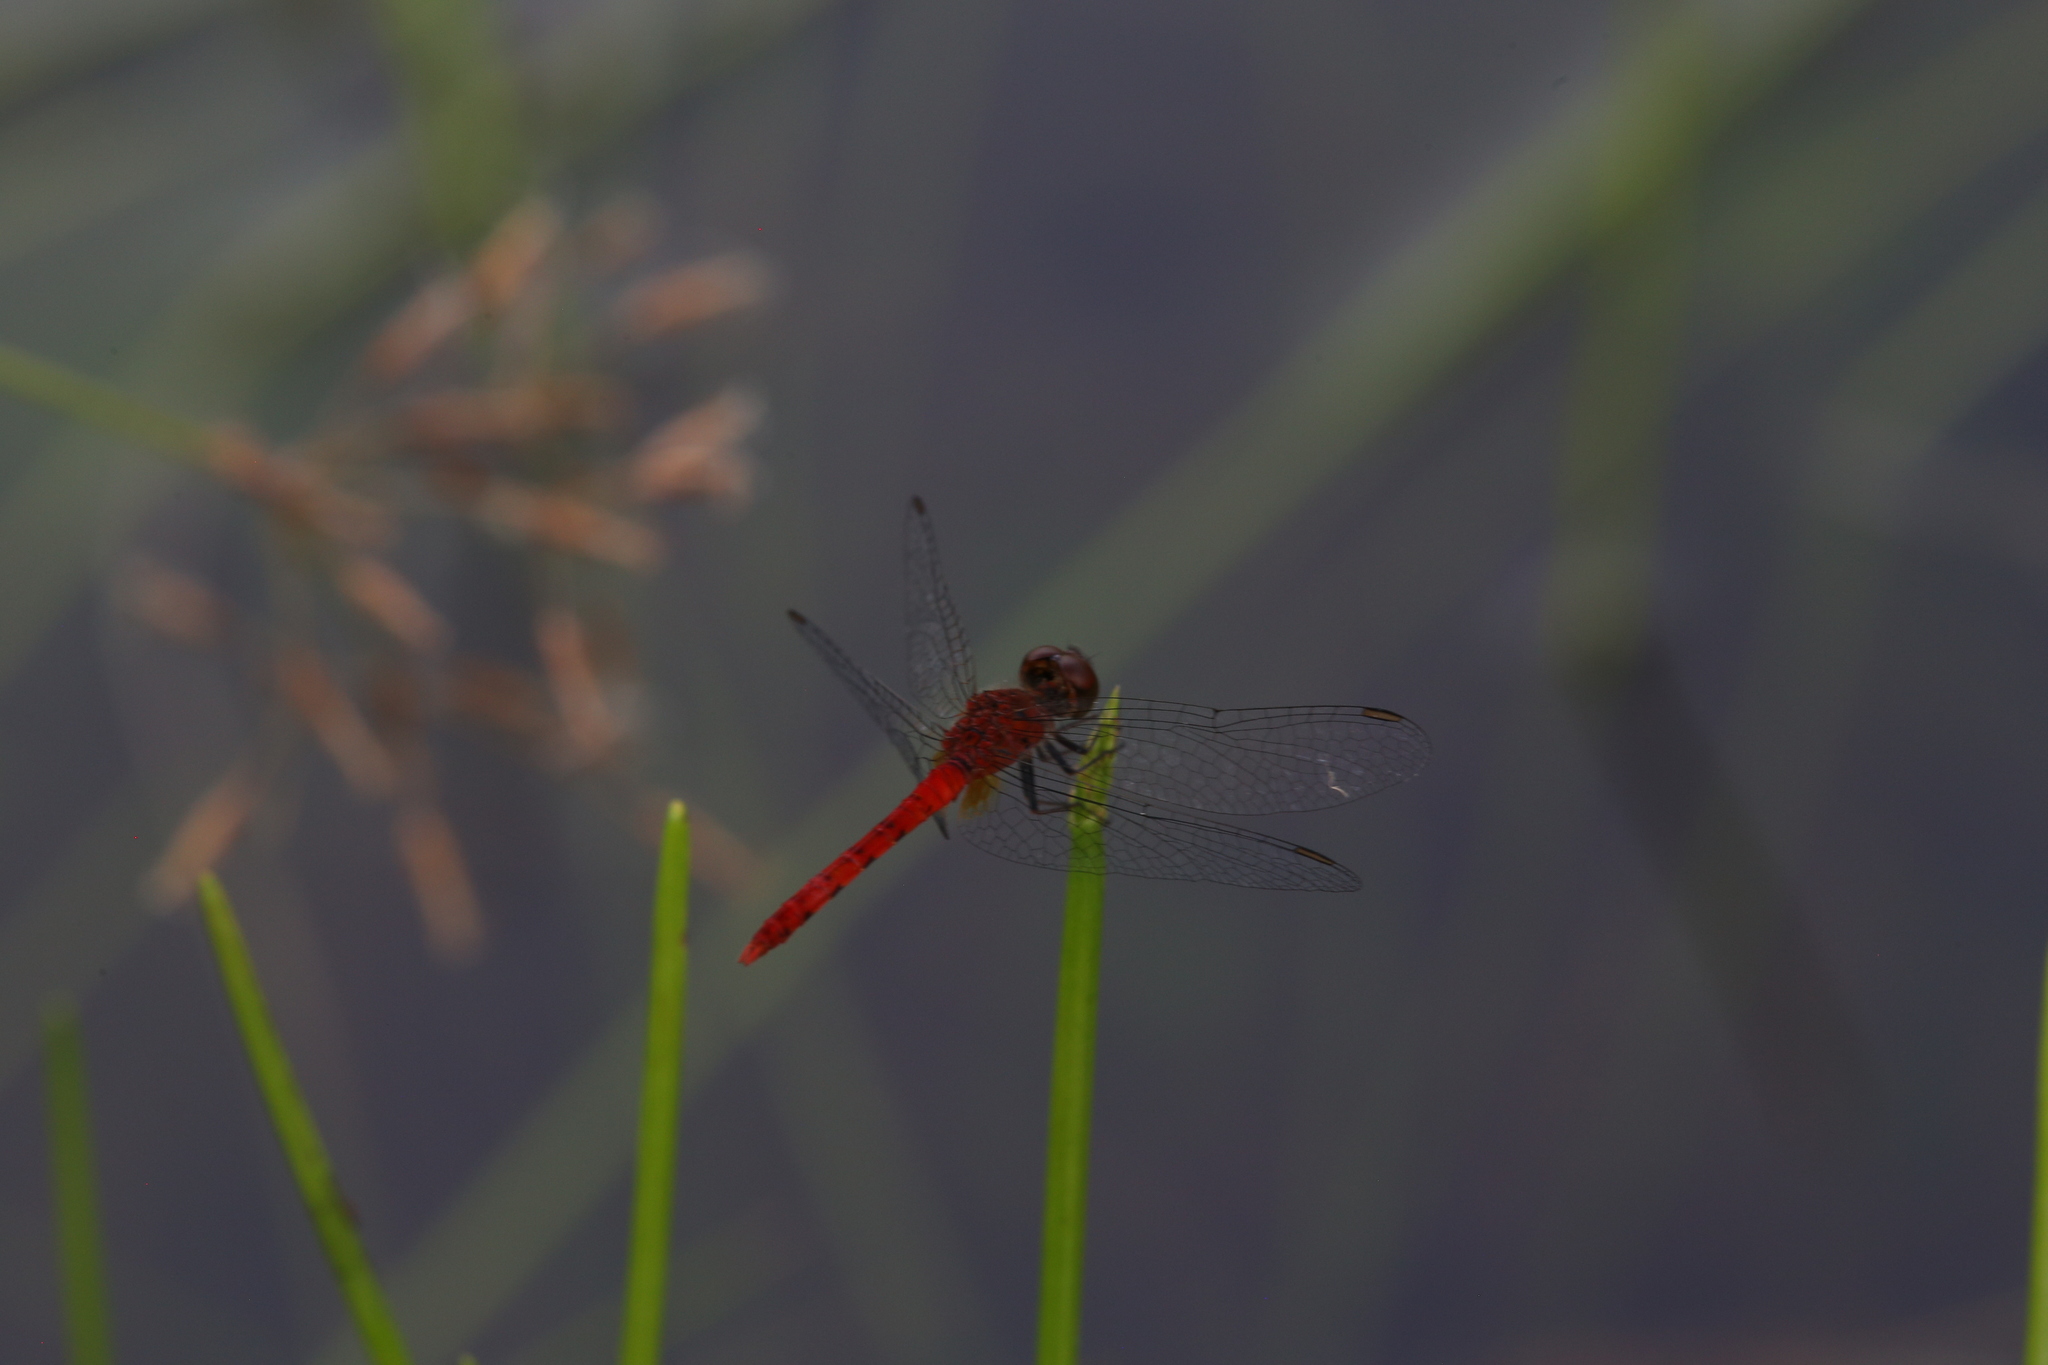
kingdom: Animalia
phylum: Arthropoda
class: Insecta
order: Odonata
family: Libellulidae
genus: Nannodiplax
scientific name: Nannodiplax rubra
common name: Pygmy percher
